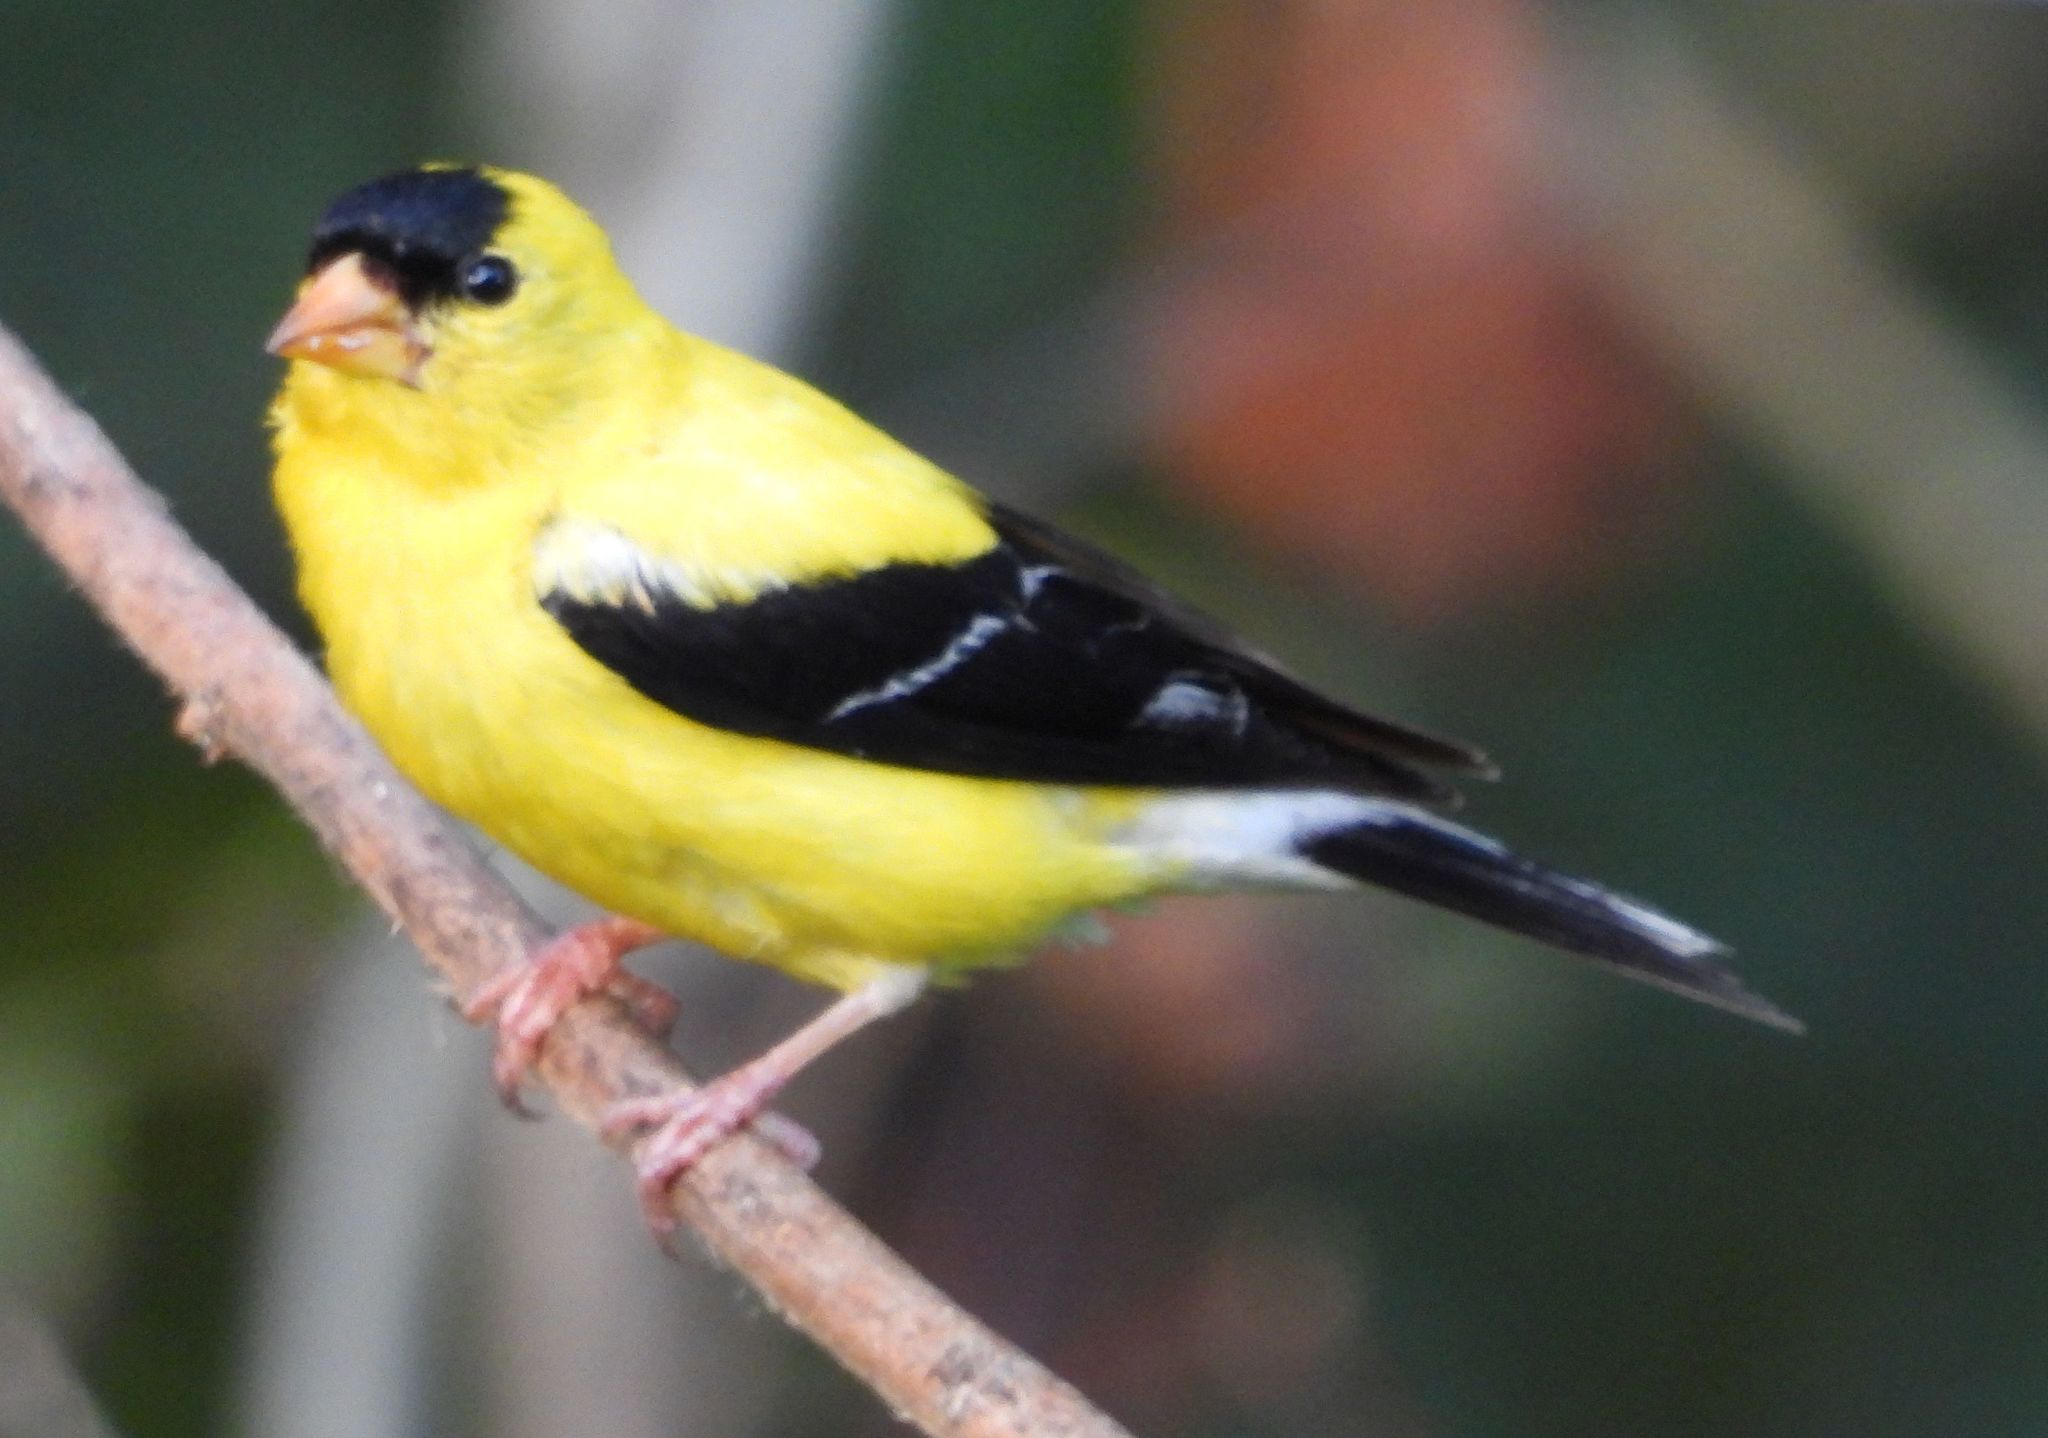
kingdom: Animalia
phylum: Chordata
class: Aves
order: Passeriformes
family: Fringillidae
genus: Spinus
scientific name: Spinus tristis
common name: American goldfinch
